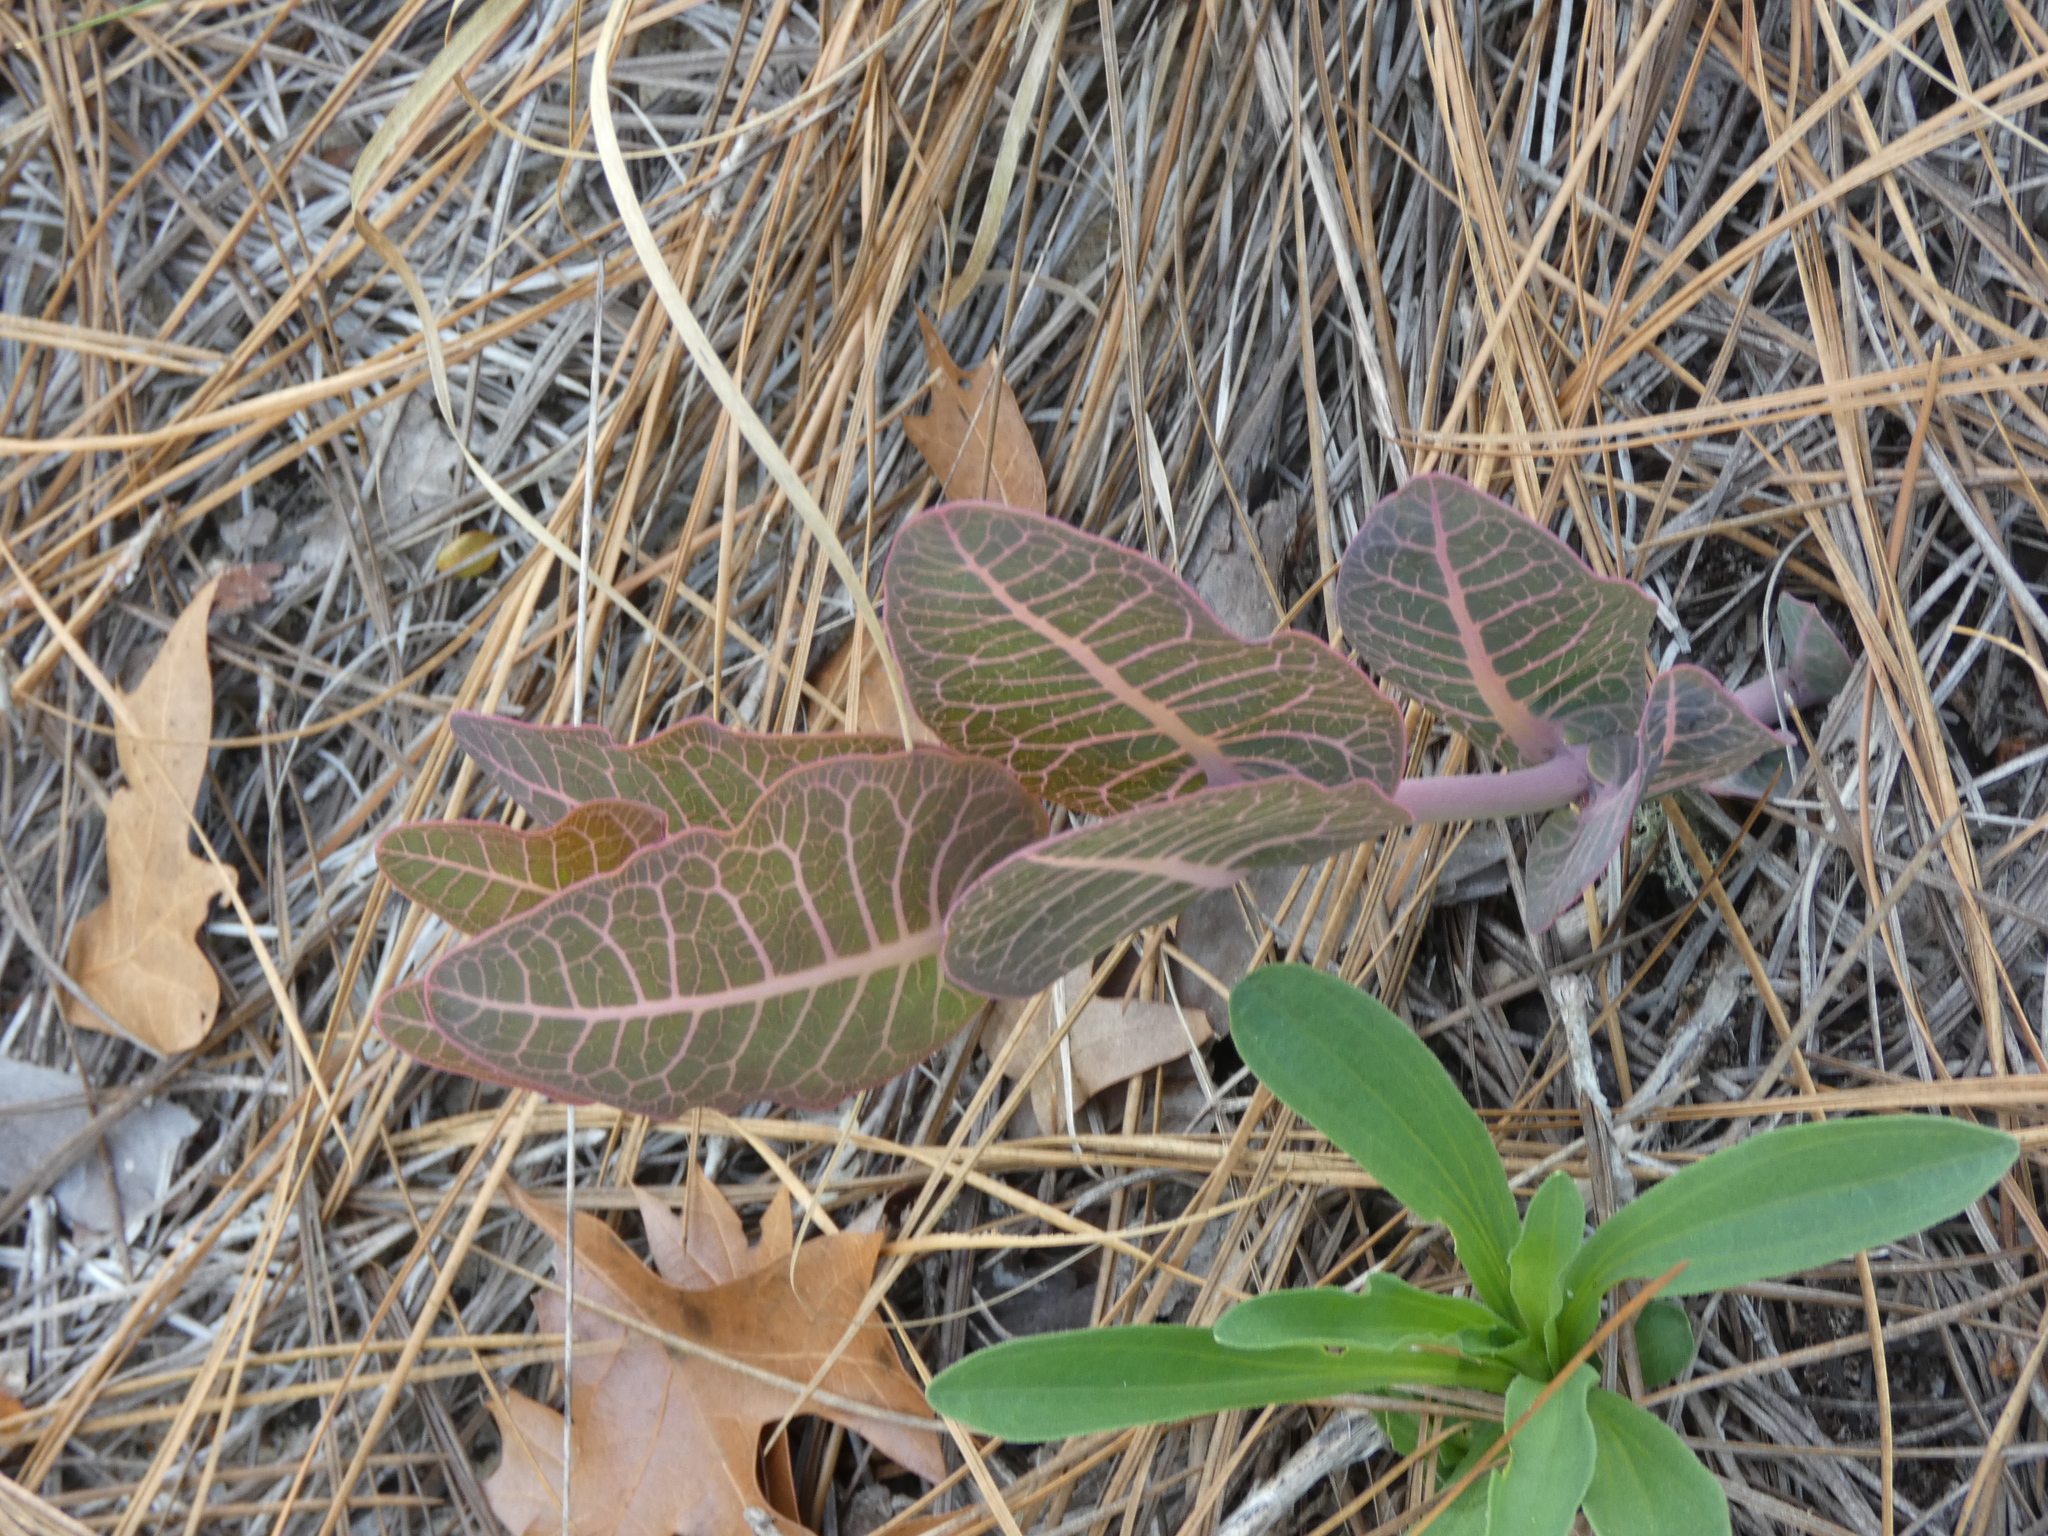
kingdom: Plantae
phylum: Tracheophyta
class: Magnoliopsida
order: Gentianales
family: Apocynaceae
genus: Asclepias
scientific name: Asclepias humistrata
